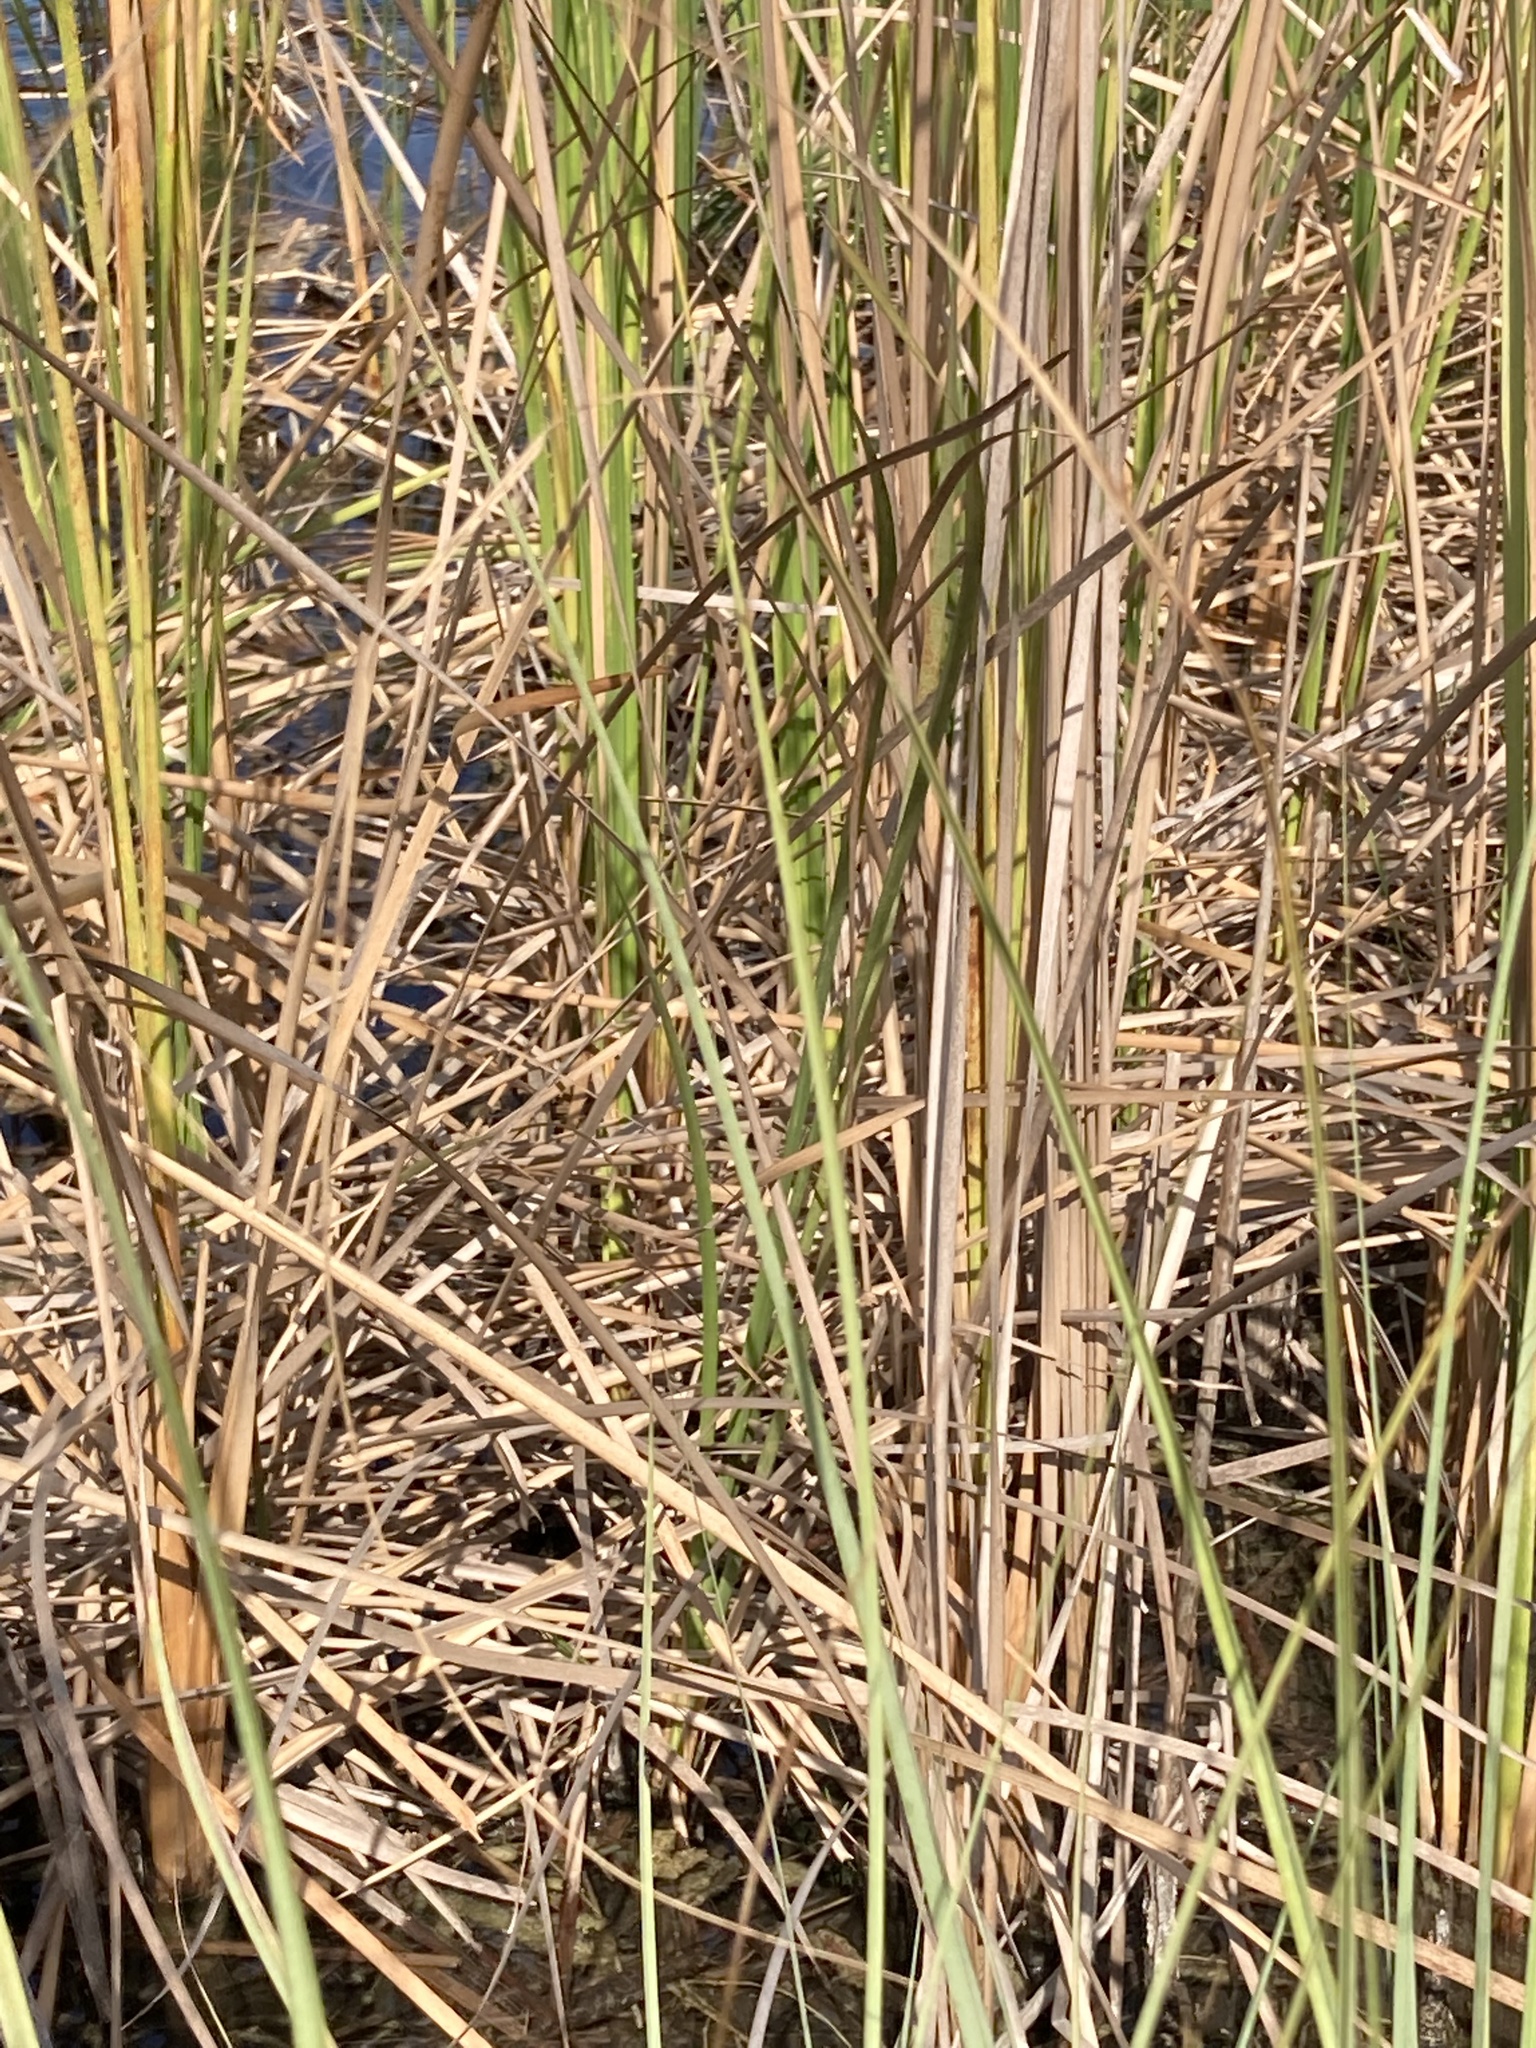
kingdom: Plantae
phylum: Tracheophyta
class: Liliopsida
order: Poales
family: Typhaceae
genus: Typha
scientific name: Typha domingensis
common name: Southern cattail
